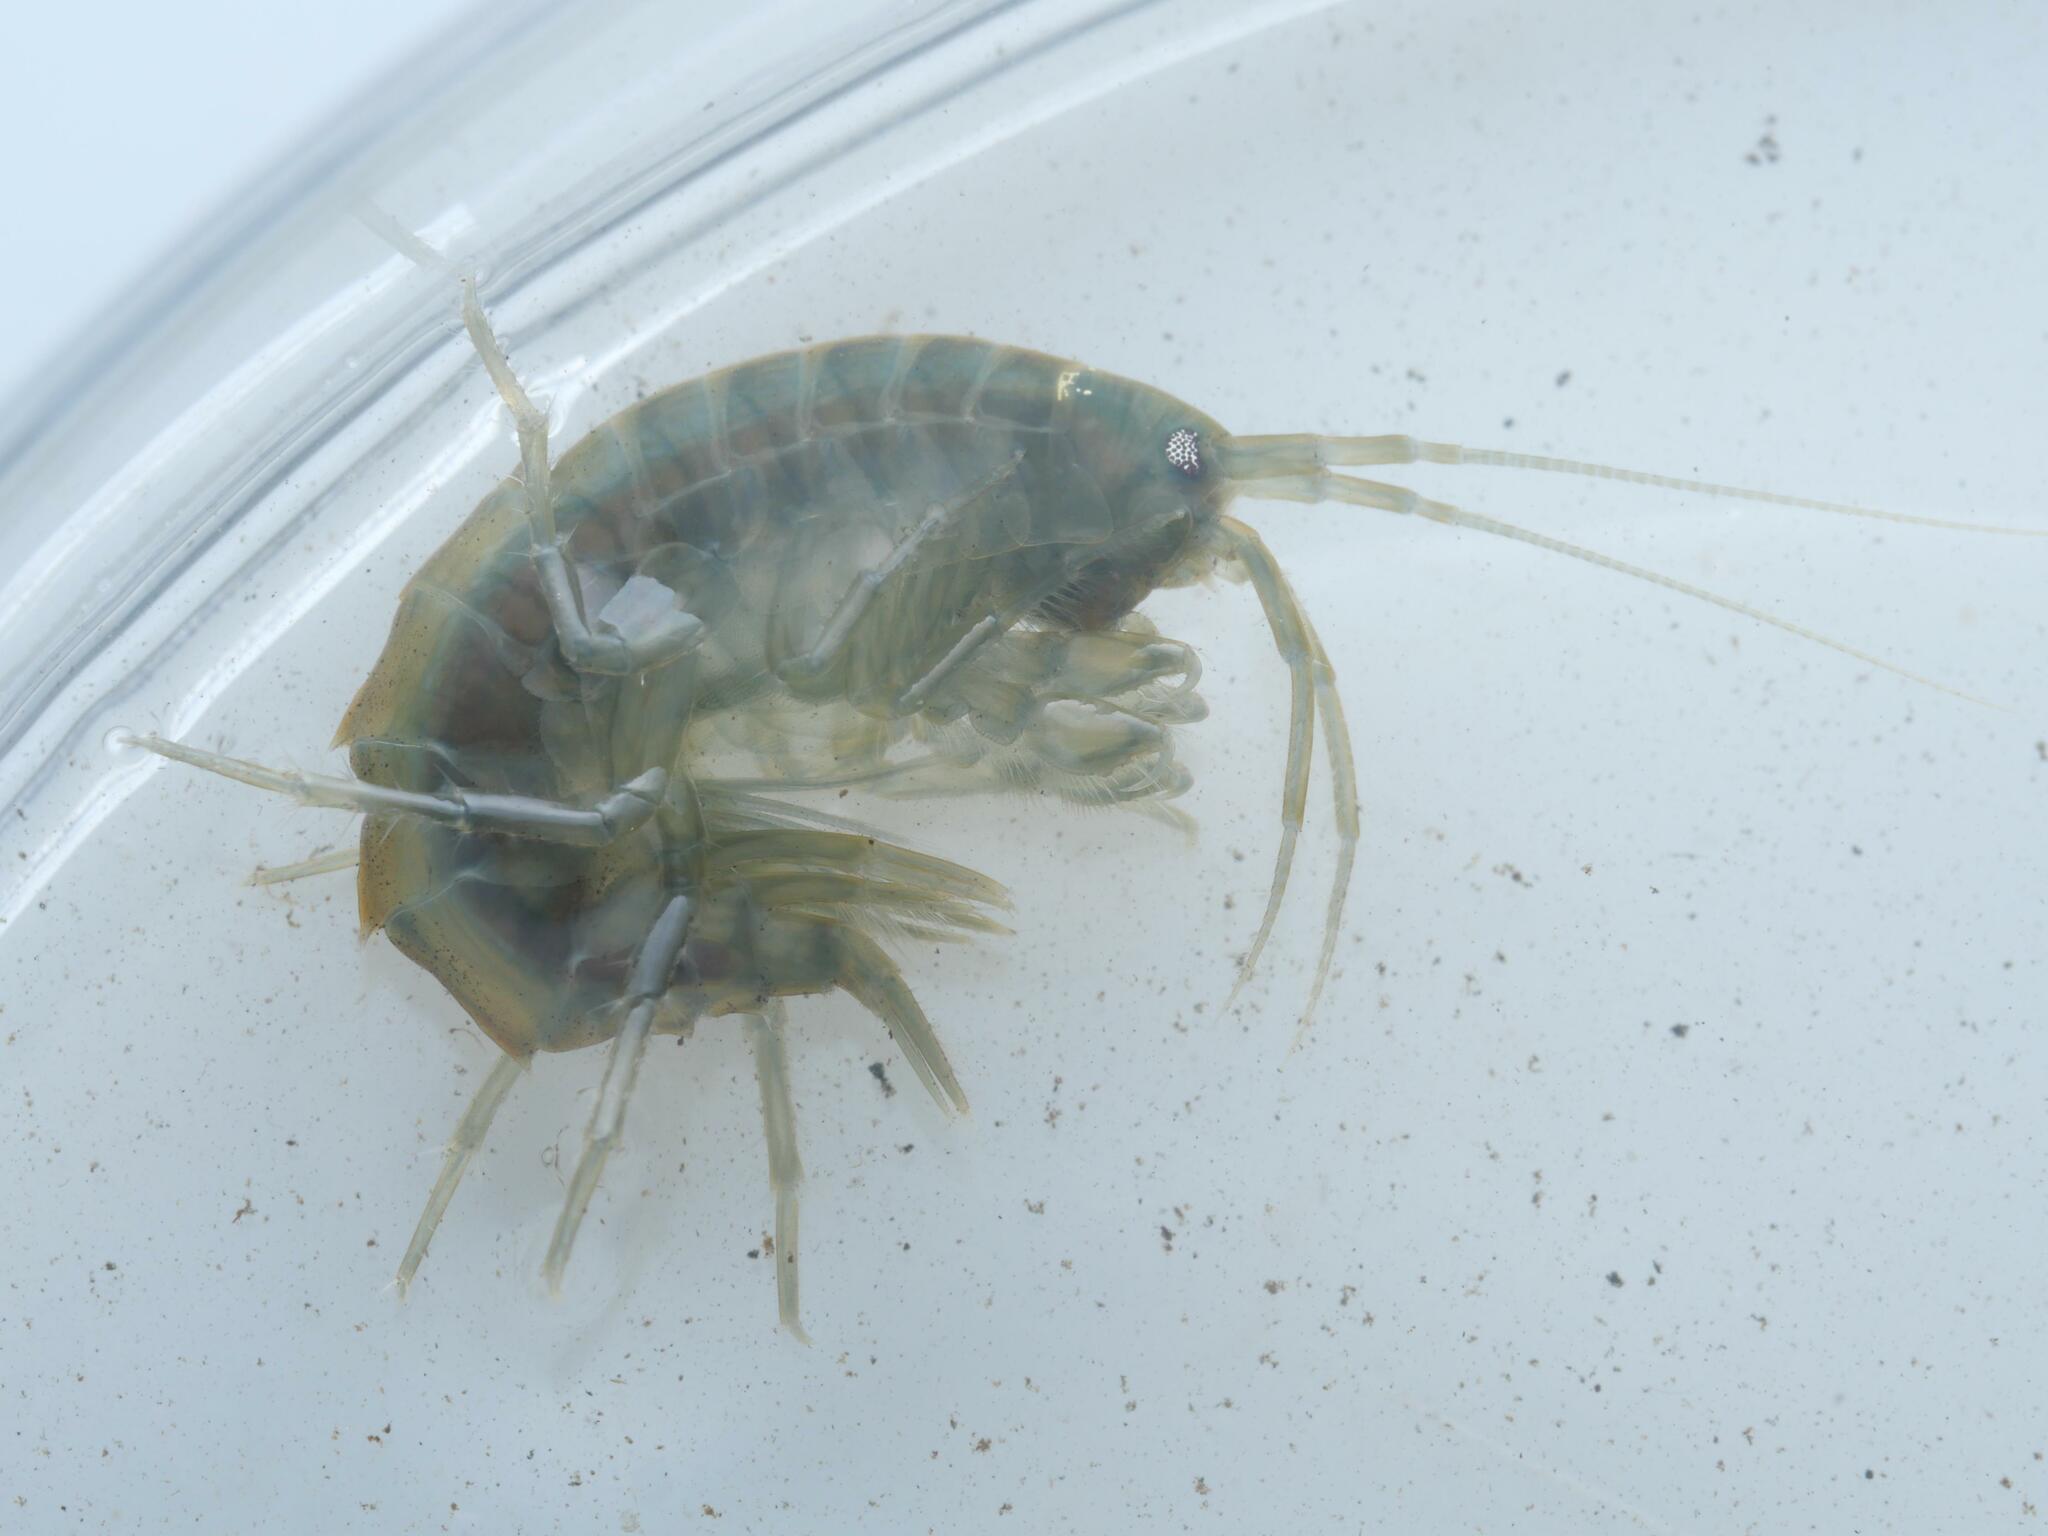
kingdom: Animalia
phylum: Arthropoda
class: Malacostraca
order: Amphipoda
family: Gammaridae
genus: Gammarus
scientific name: Gammarus roeselii
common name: Lacustrine amphipod
